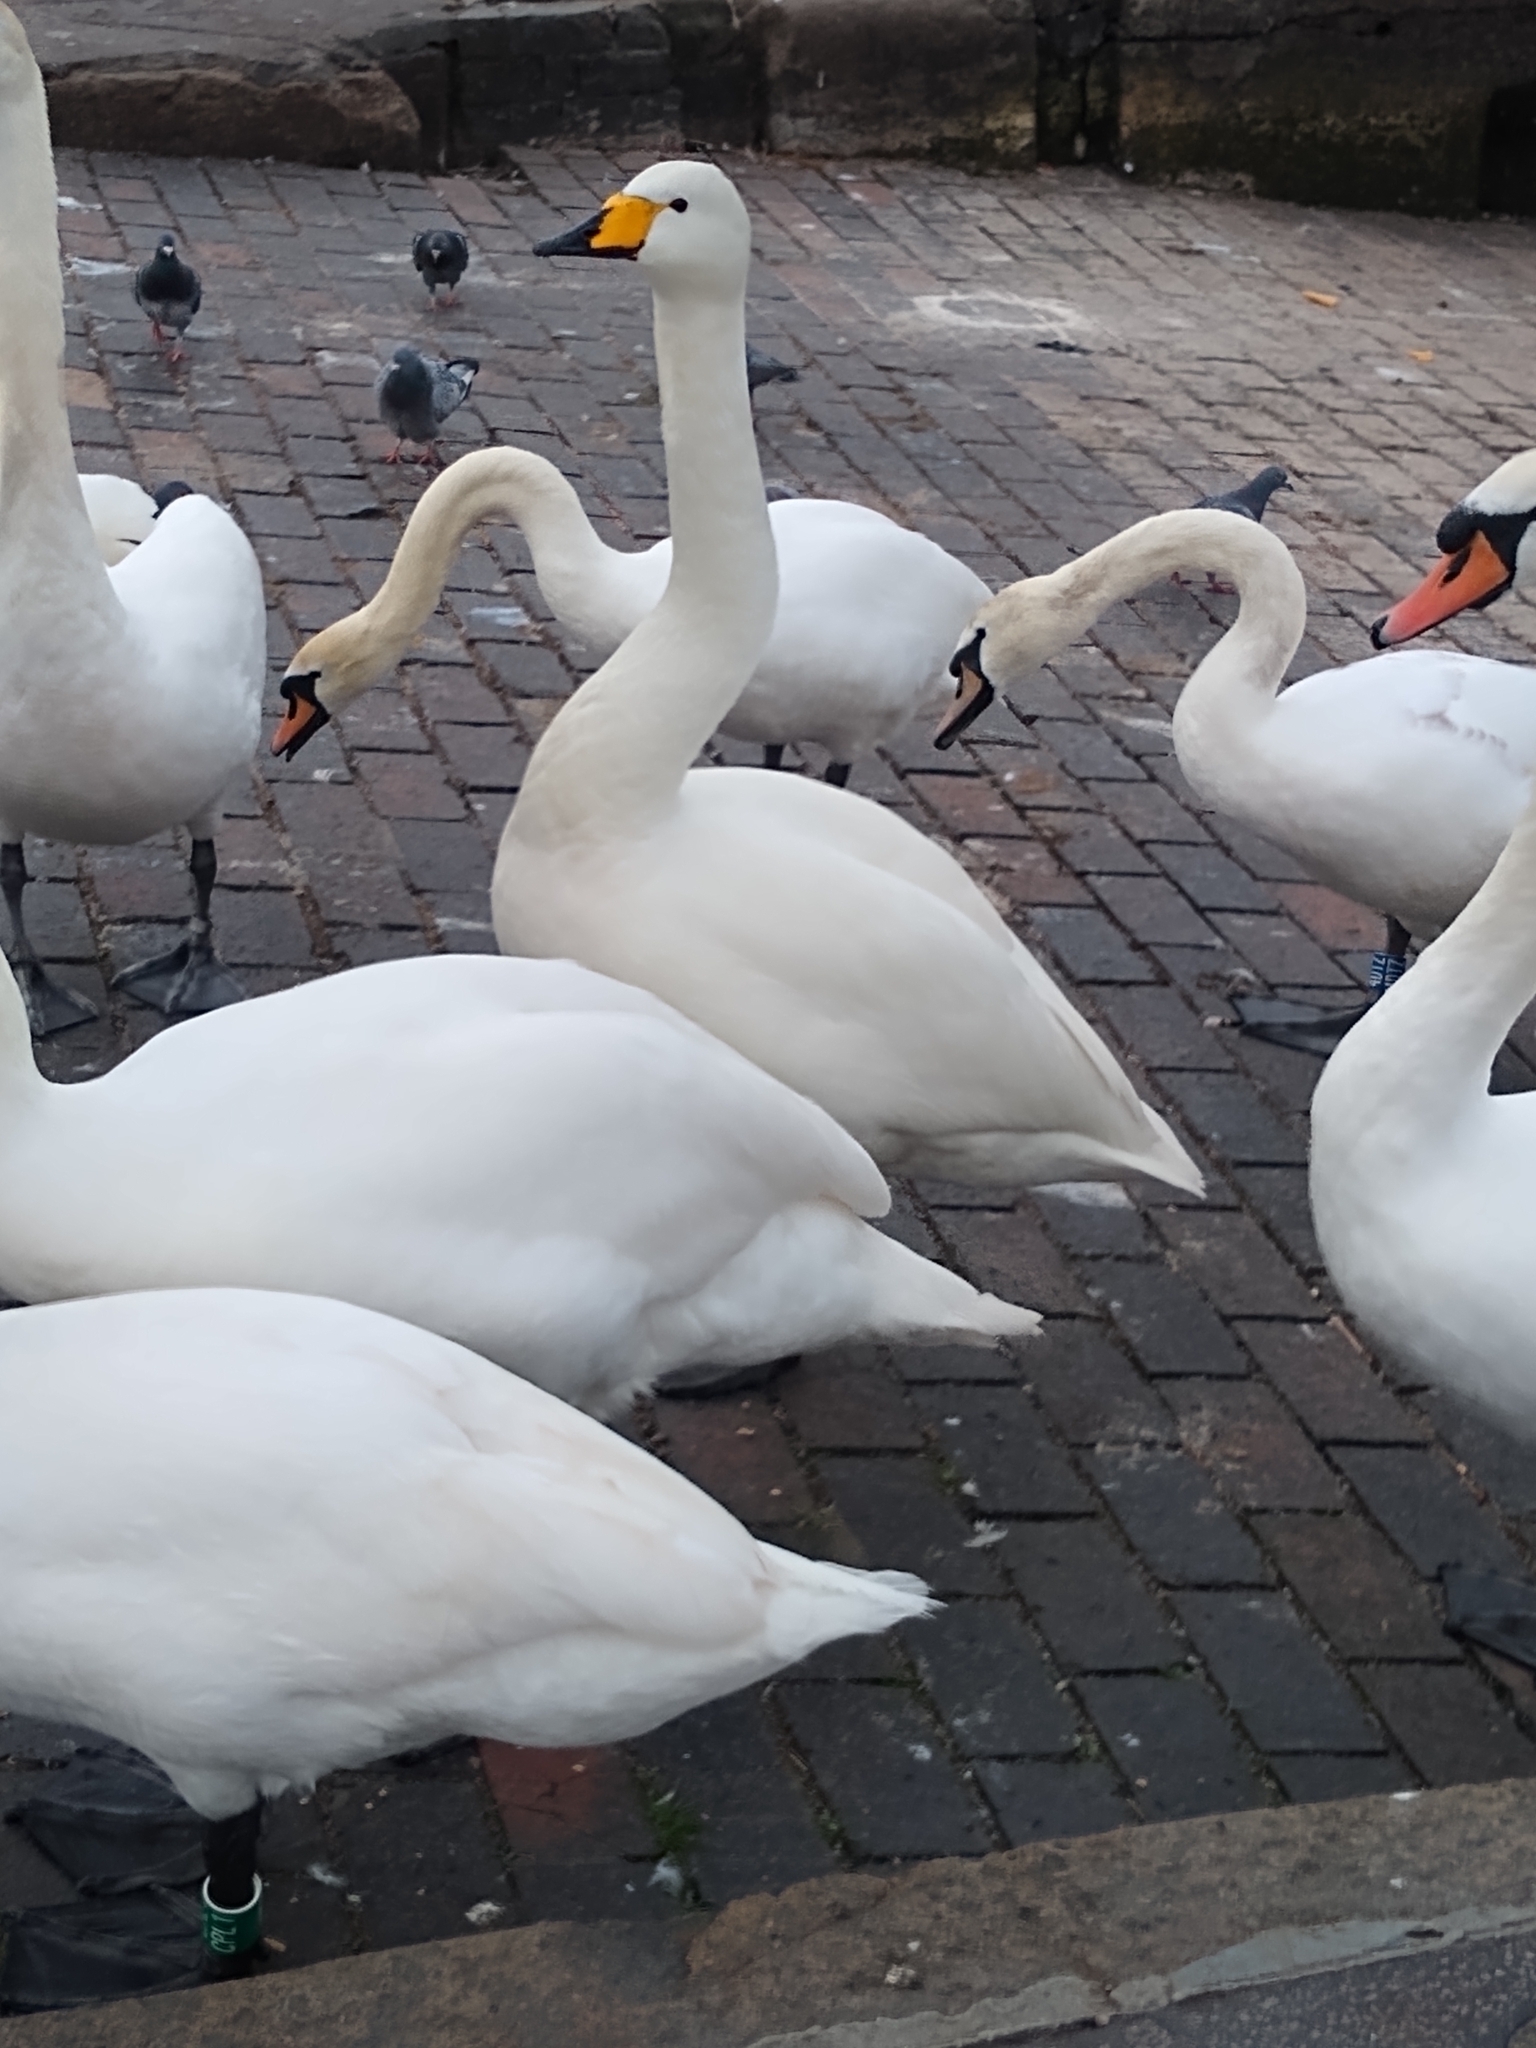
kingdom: Animalia
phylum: Chordata
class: Aves
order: Anseriformes
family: Anatidae
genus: Cygnus
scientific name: Cygnus cygnus
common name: Whooper swan
